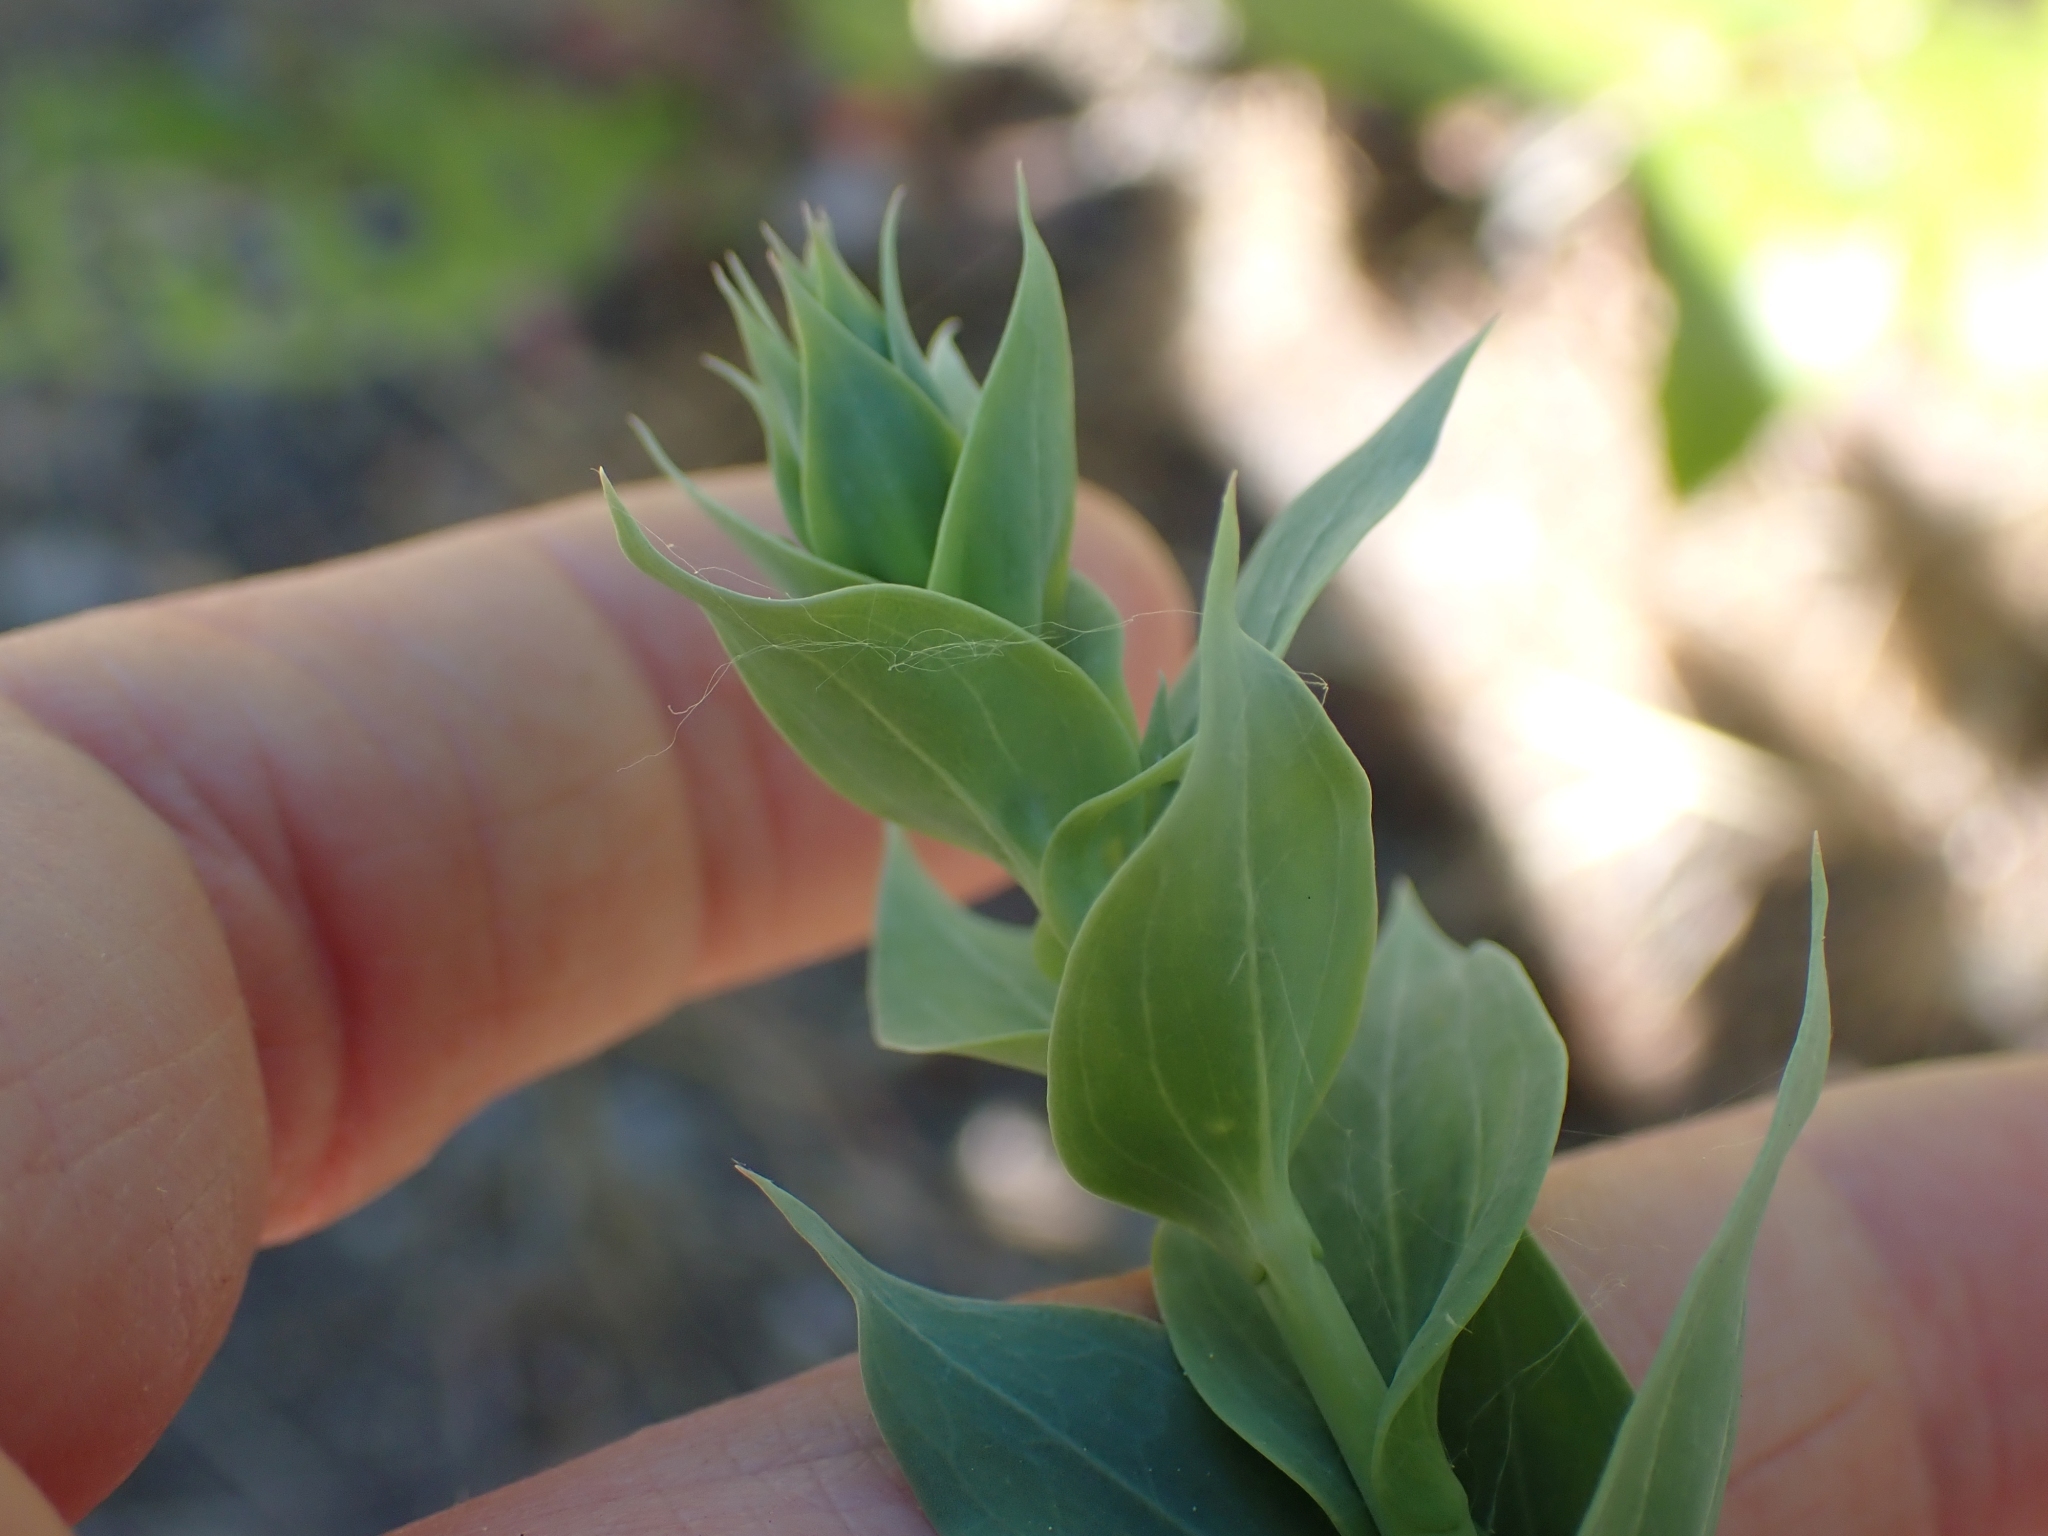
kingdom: Plantae
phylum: Tracheophyta
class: Magnoliopsida
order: Lamiales
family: Plantaginaceae
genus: Linaria
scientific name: Linaria dalmatica
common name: Dalmatian toadflax
